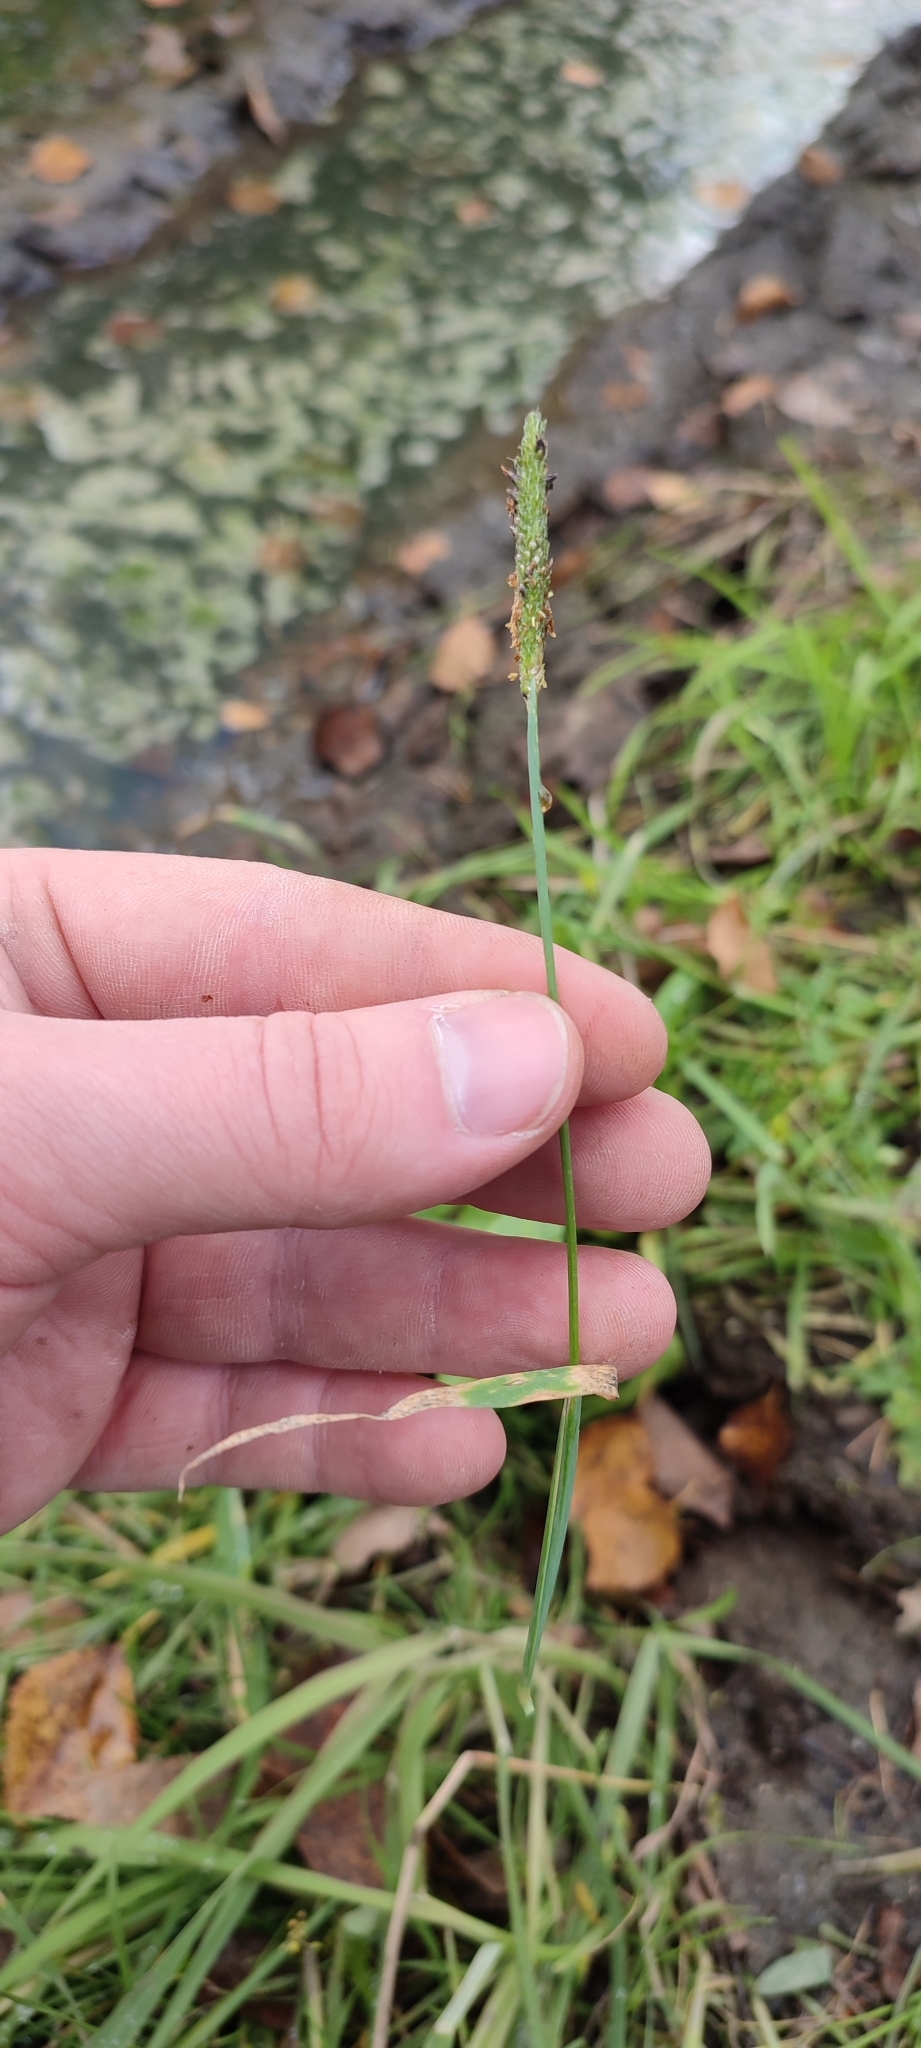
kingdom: Plantae
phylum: Tracheophyta
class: Liliopsida
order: Poales
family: Poaceae
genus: Alopecurus
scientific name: Alopecurus aequalis
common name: Orange foxtail
